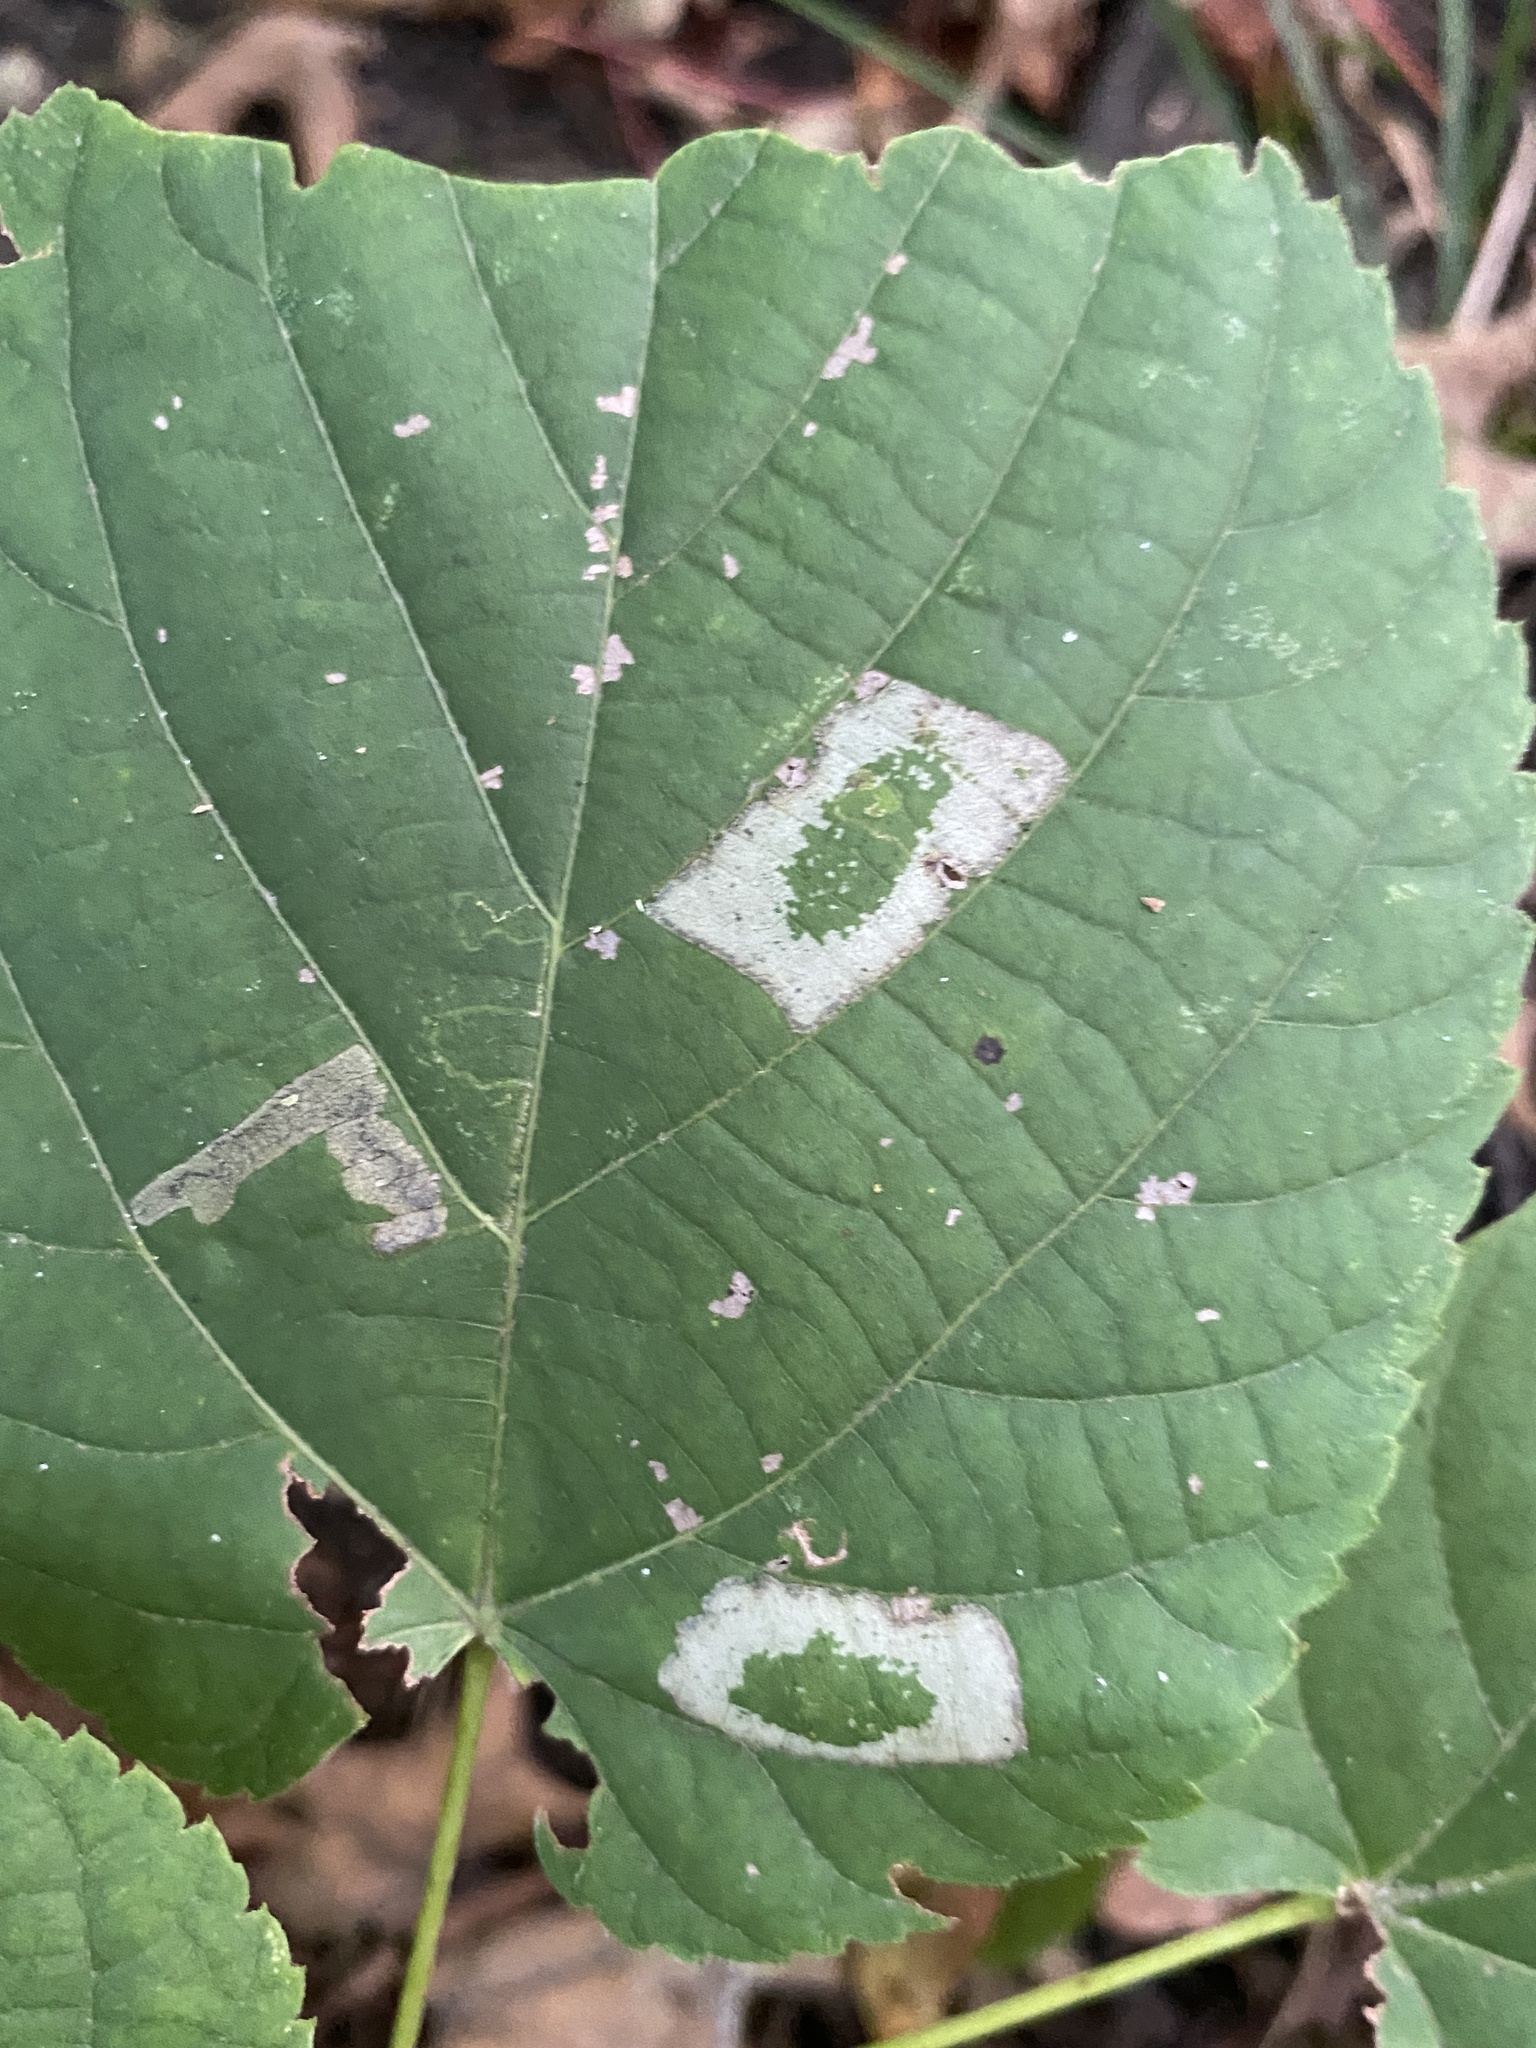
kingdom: Animalia
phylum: Arthropoda
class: Insecta
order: Lepidoptera
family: Gracillariidae
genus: Phyllonorycter
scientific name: Phyllonorycter lucetiella
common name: Basswood miner moth
